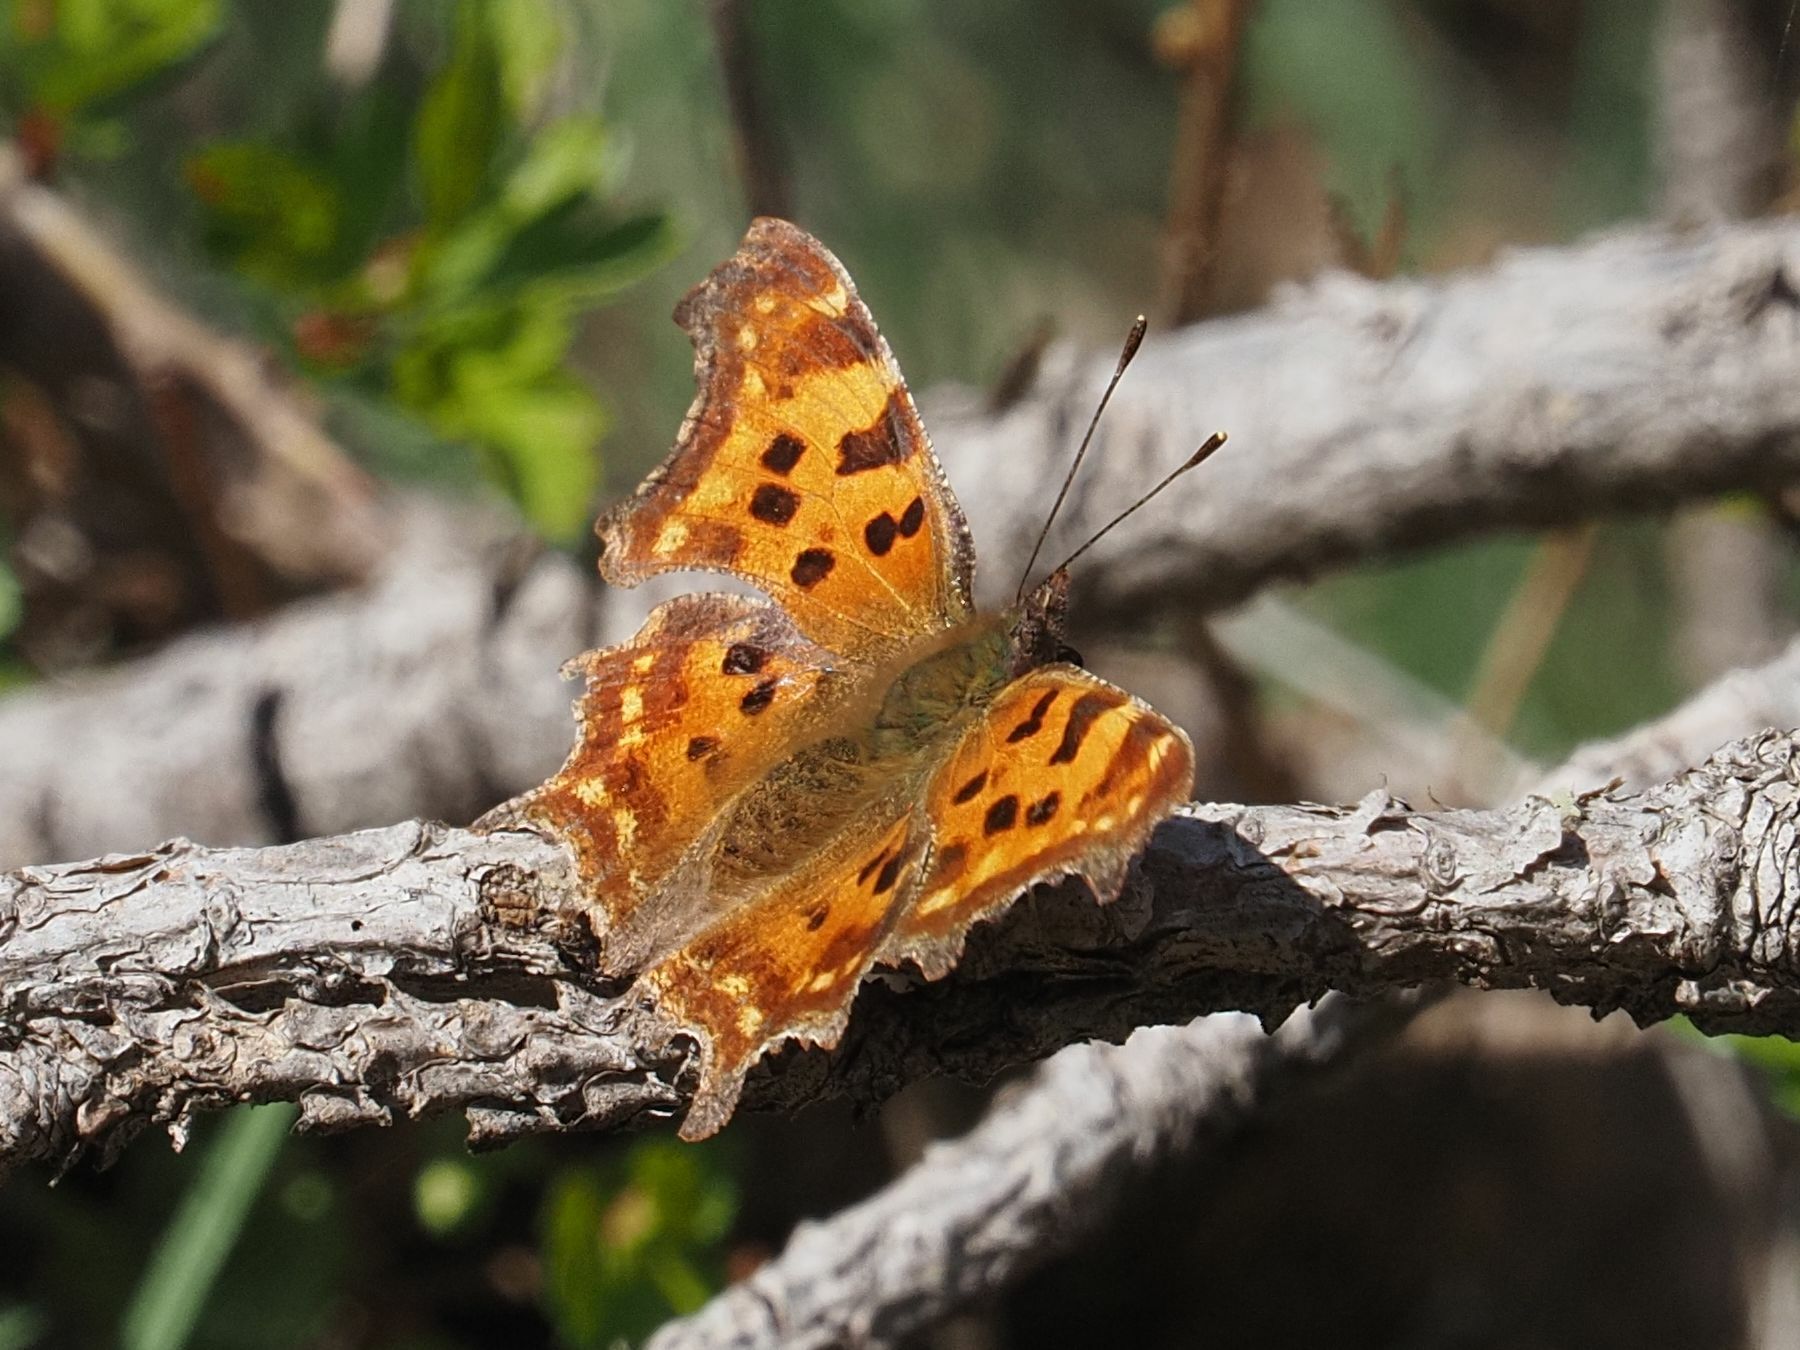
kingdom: Animalia
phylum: Arthropoda
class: Insecta
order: Lepidoptera
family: Nymphalidae
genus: Polygonia
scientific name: Polygonia c-album
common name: Comma
